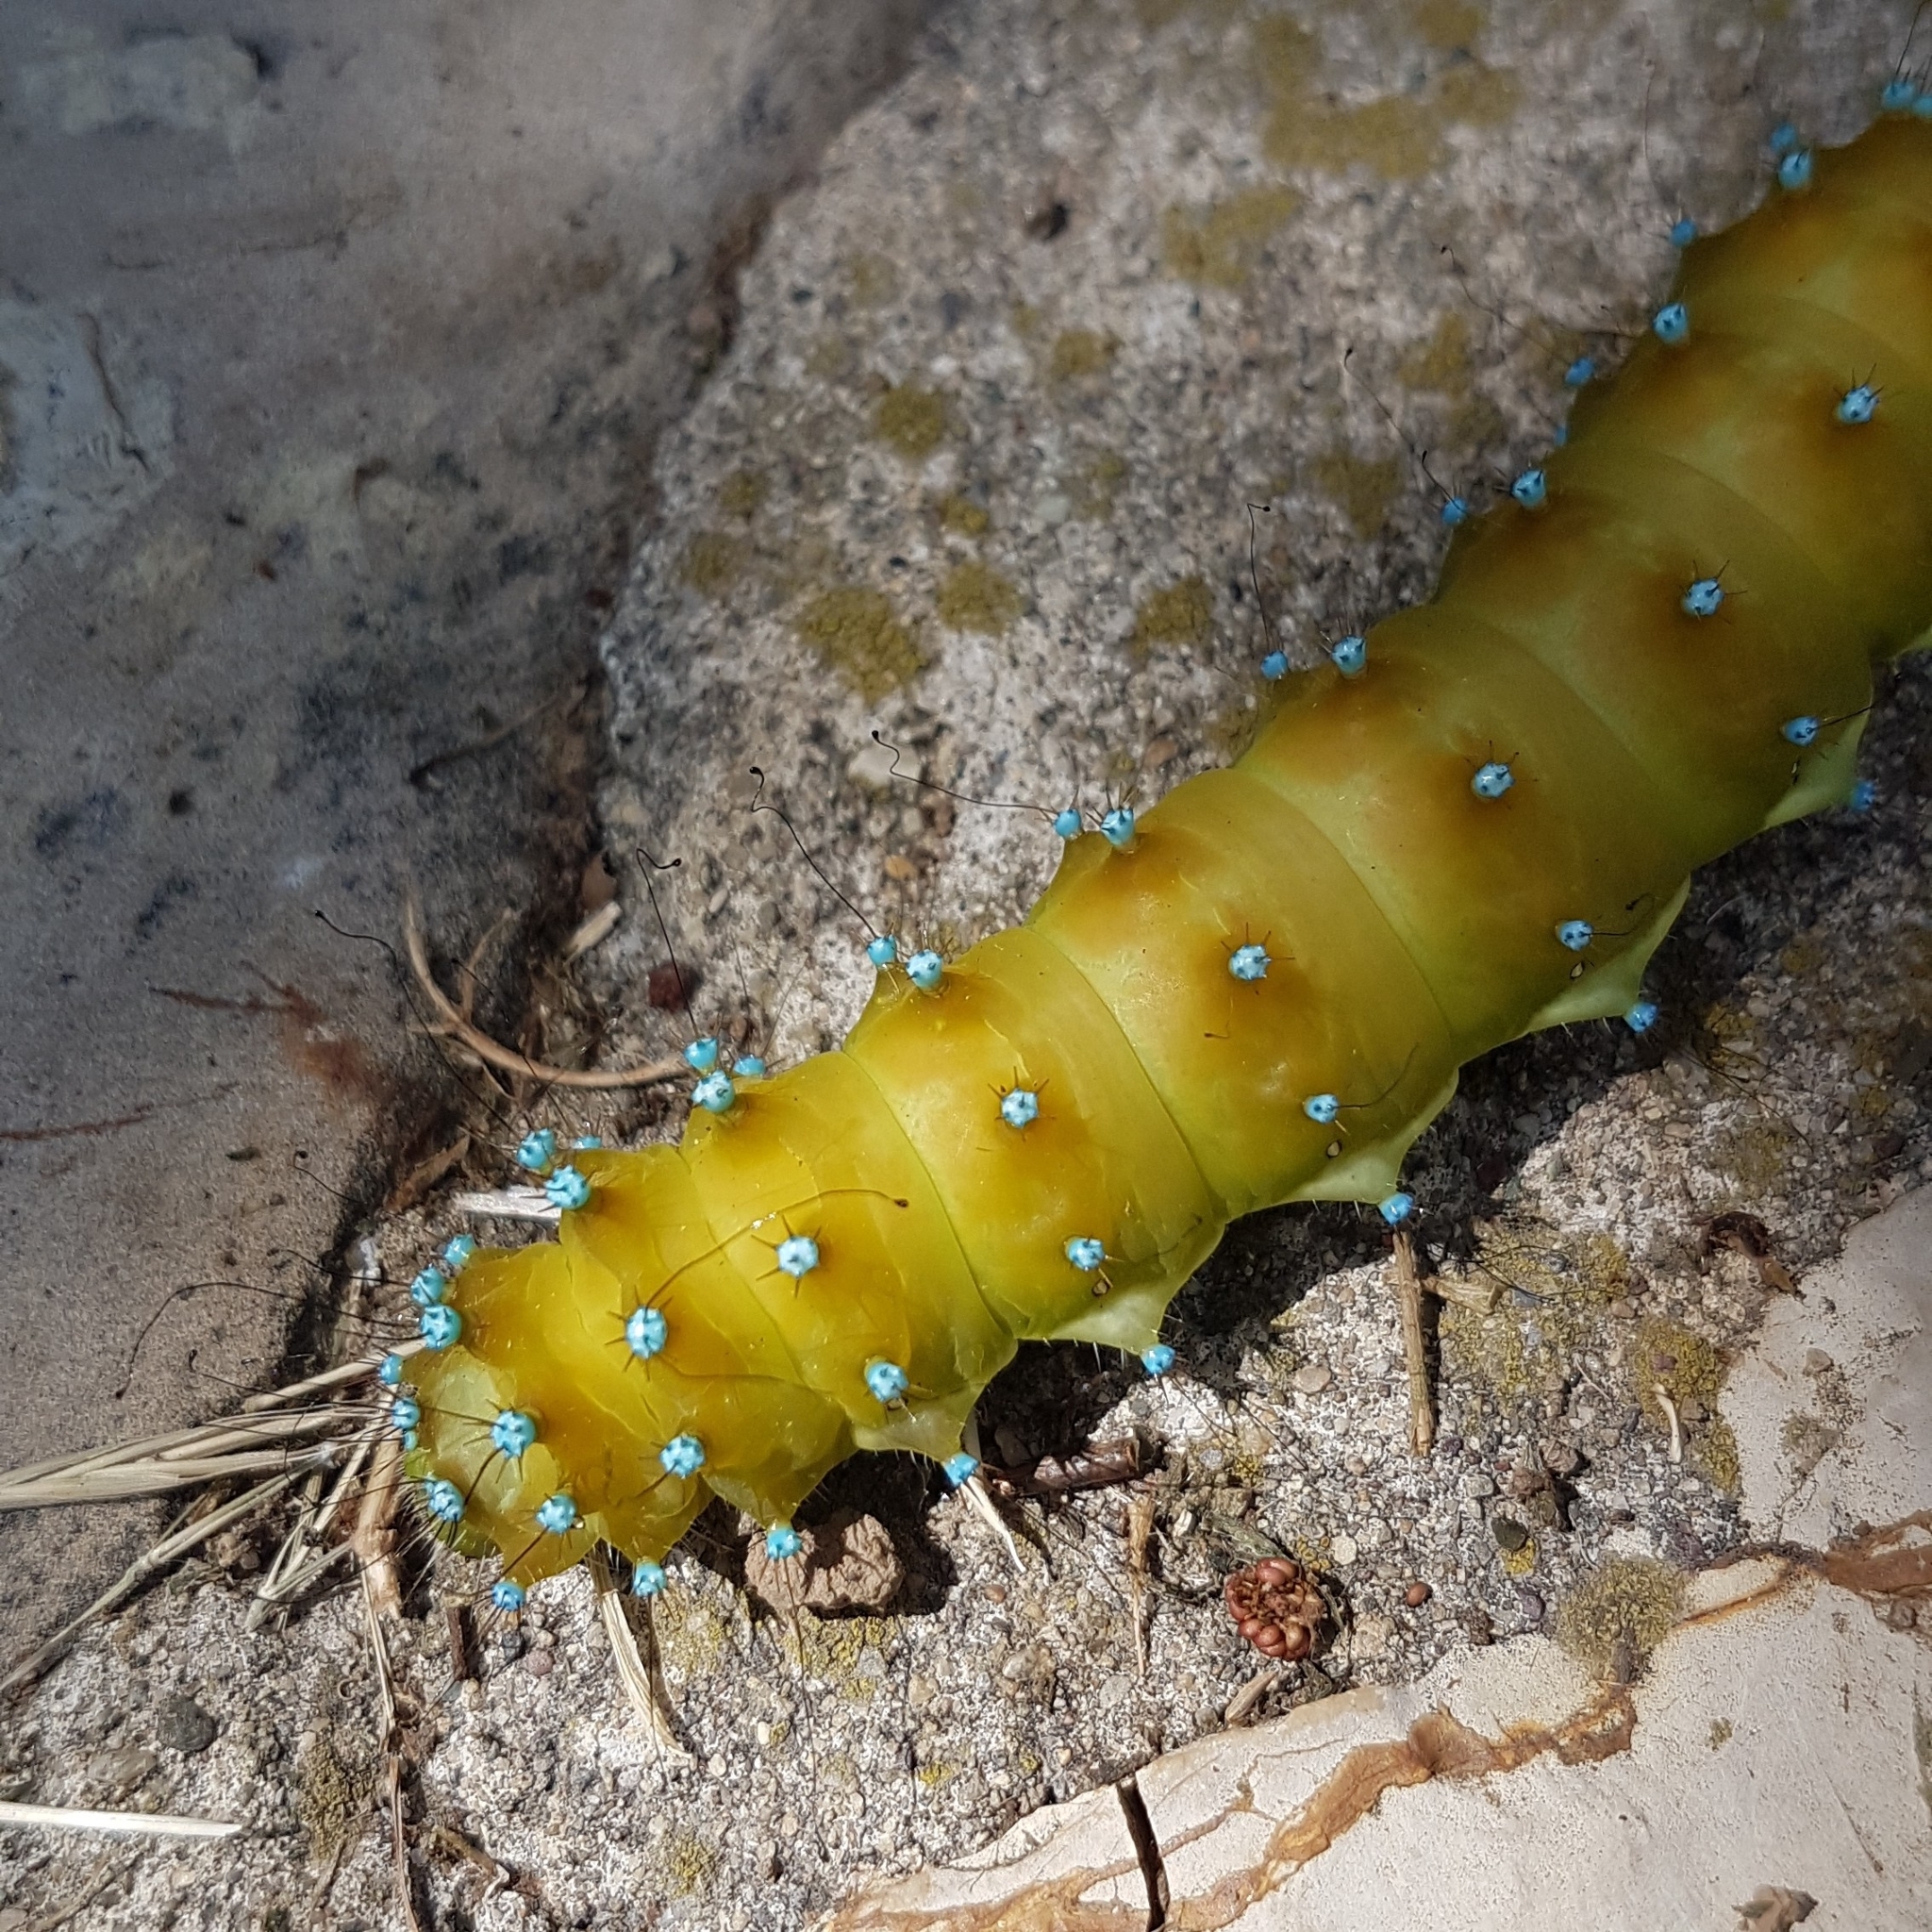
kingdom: Animalia
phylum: Arthropoda
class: Insecta
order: Lepidoptera
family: Saturniidae
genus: Saturnia
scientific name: Saturnia pyri
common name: Great peacock moth
